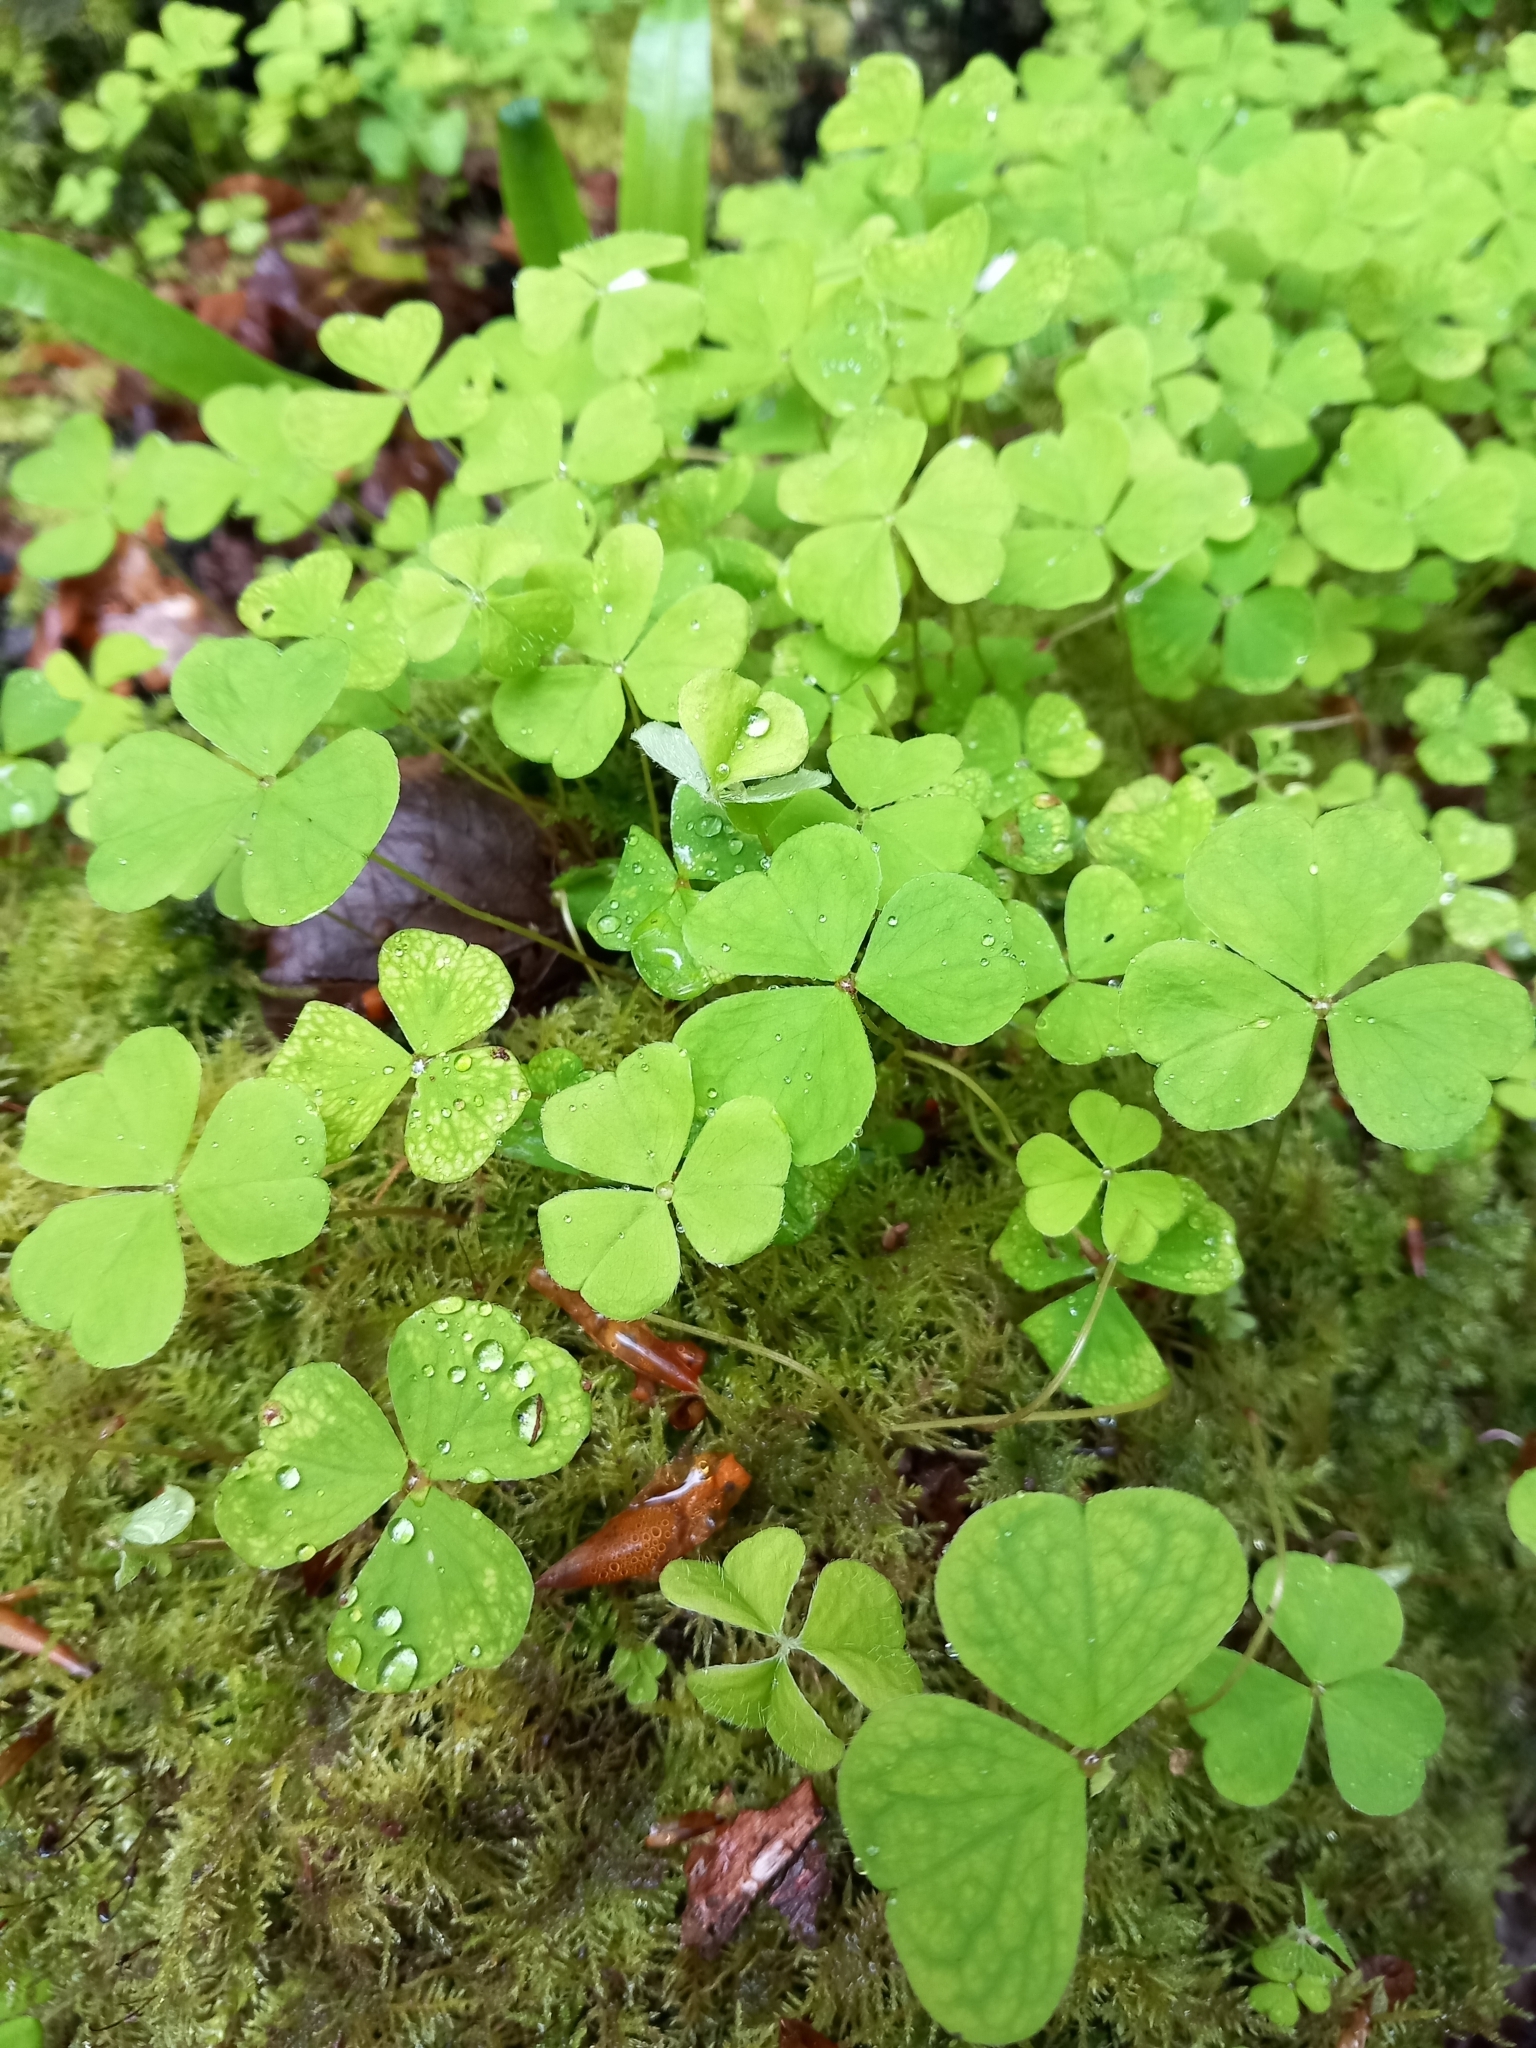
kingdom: Plantae
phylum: Tracheophyta
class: Magnoliopsida
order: Oxalidales
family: Oxalidaceae
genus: Oxalis
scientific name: Oxalis acetosella
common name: Wood-sorrel
